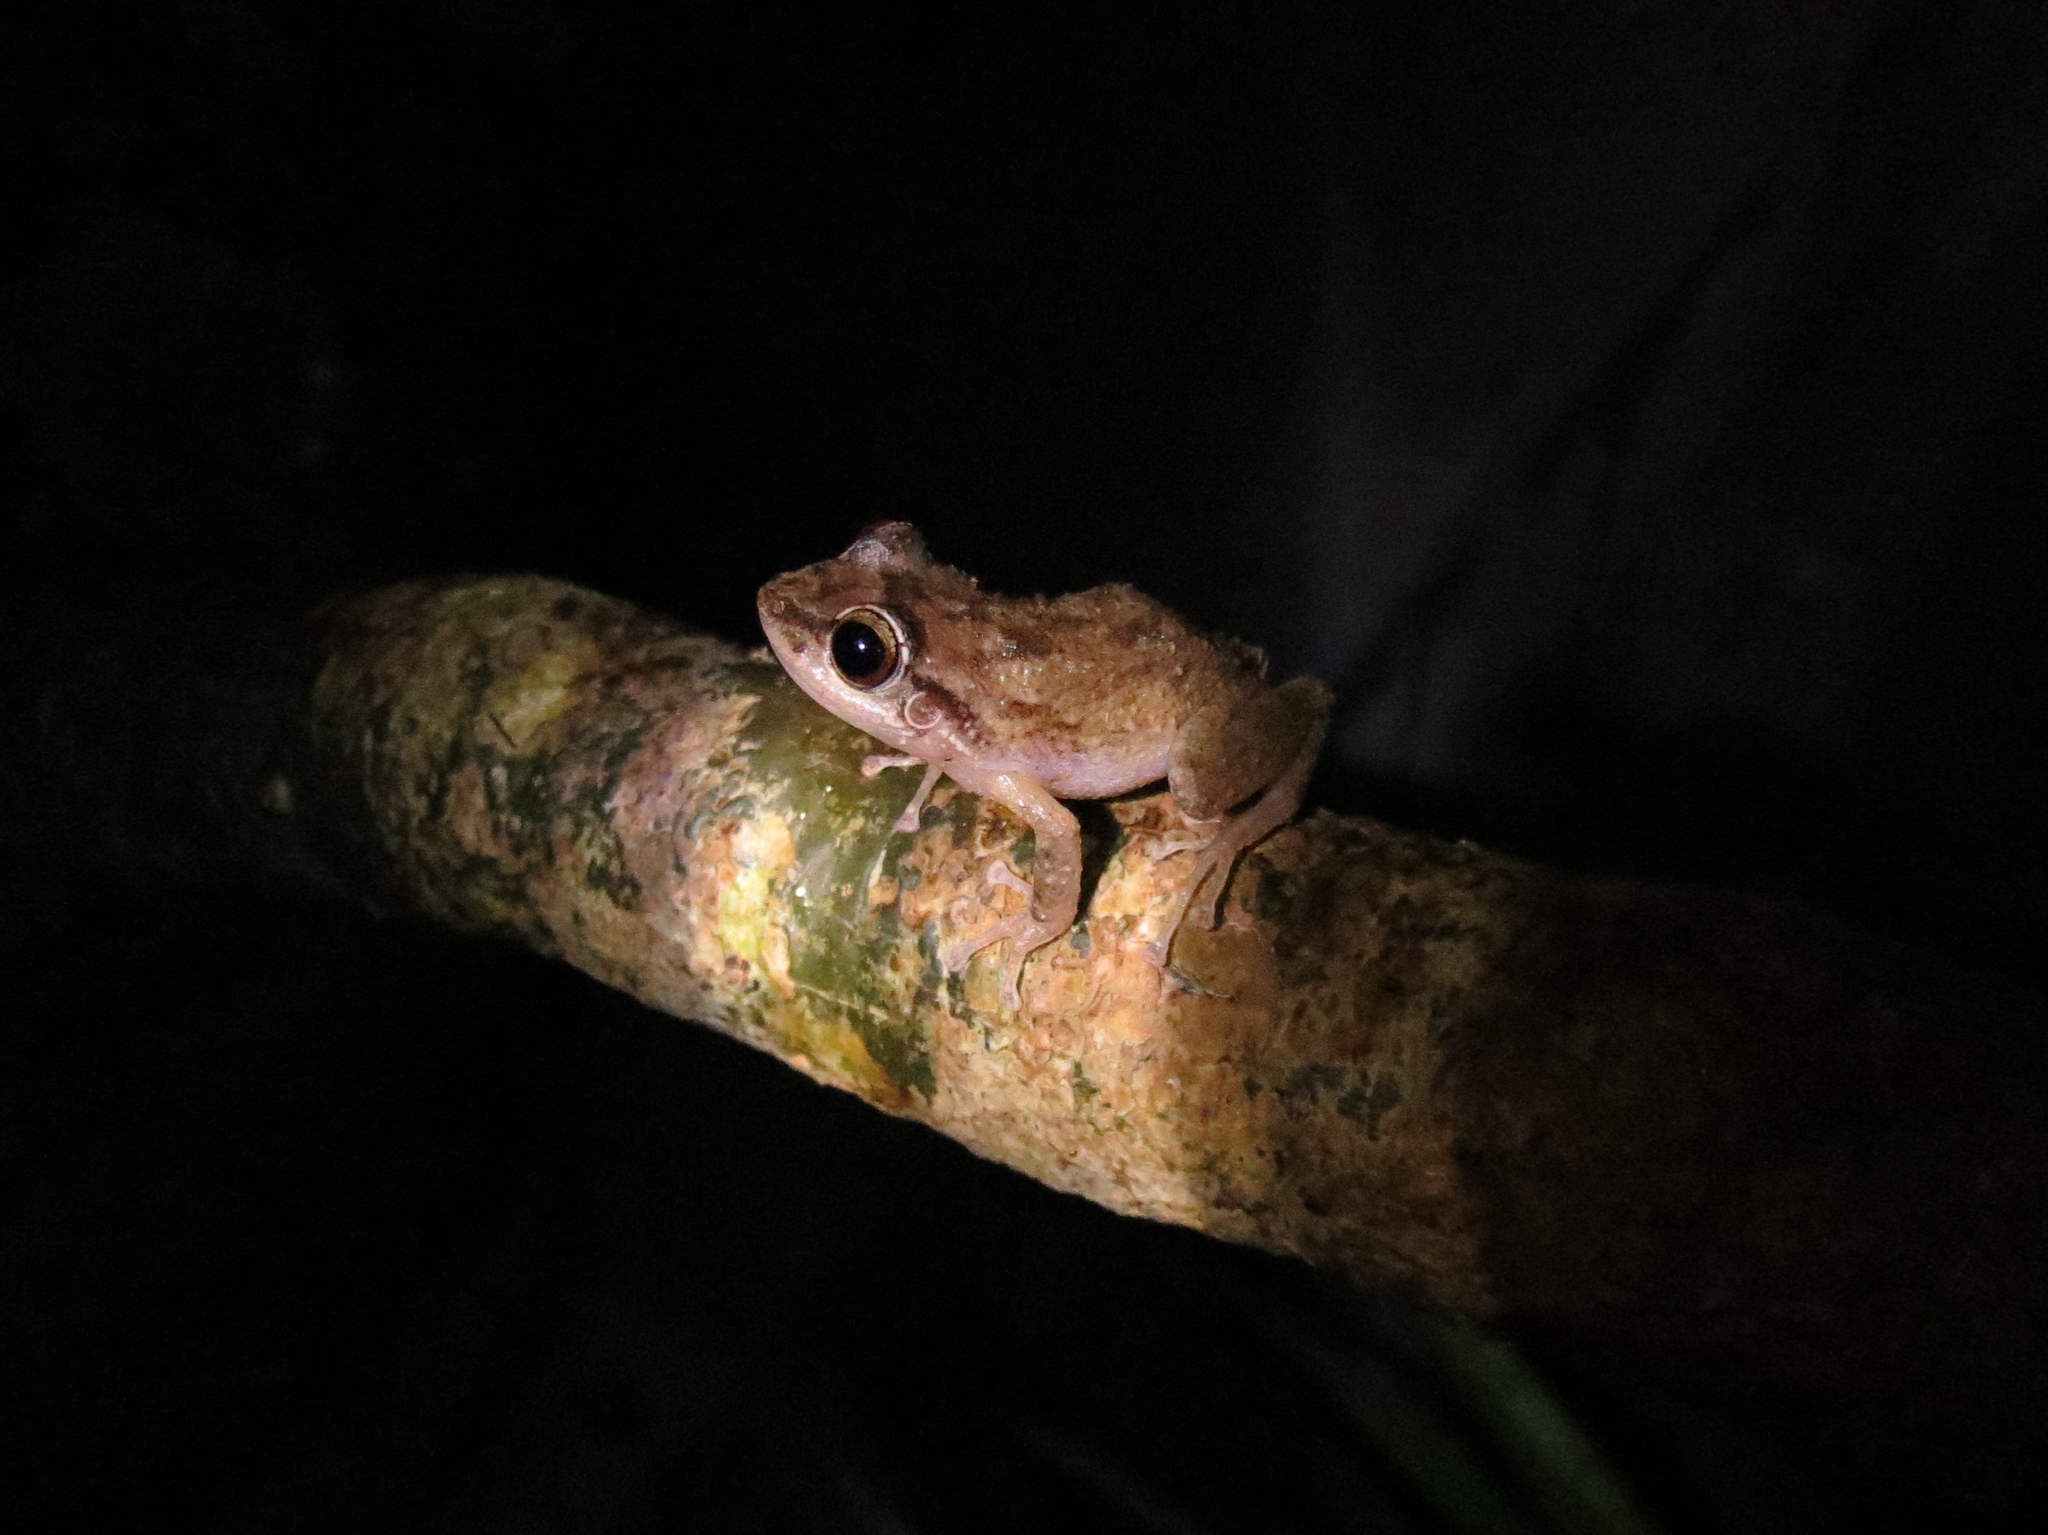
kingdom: Animalia
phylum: Chordata
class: Amphibia
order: Anura
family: Eleutherodactylidae
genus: Eleutherodactylus
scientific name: Eleutherodactylus coqui
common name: Coqui frog
